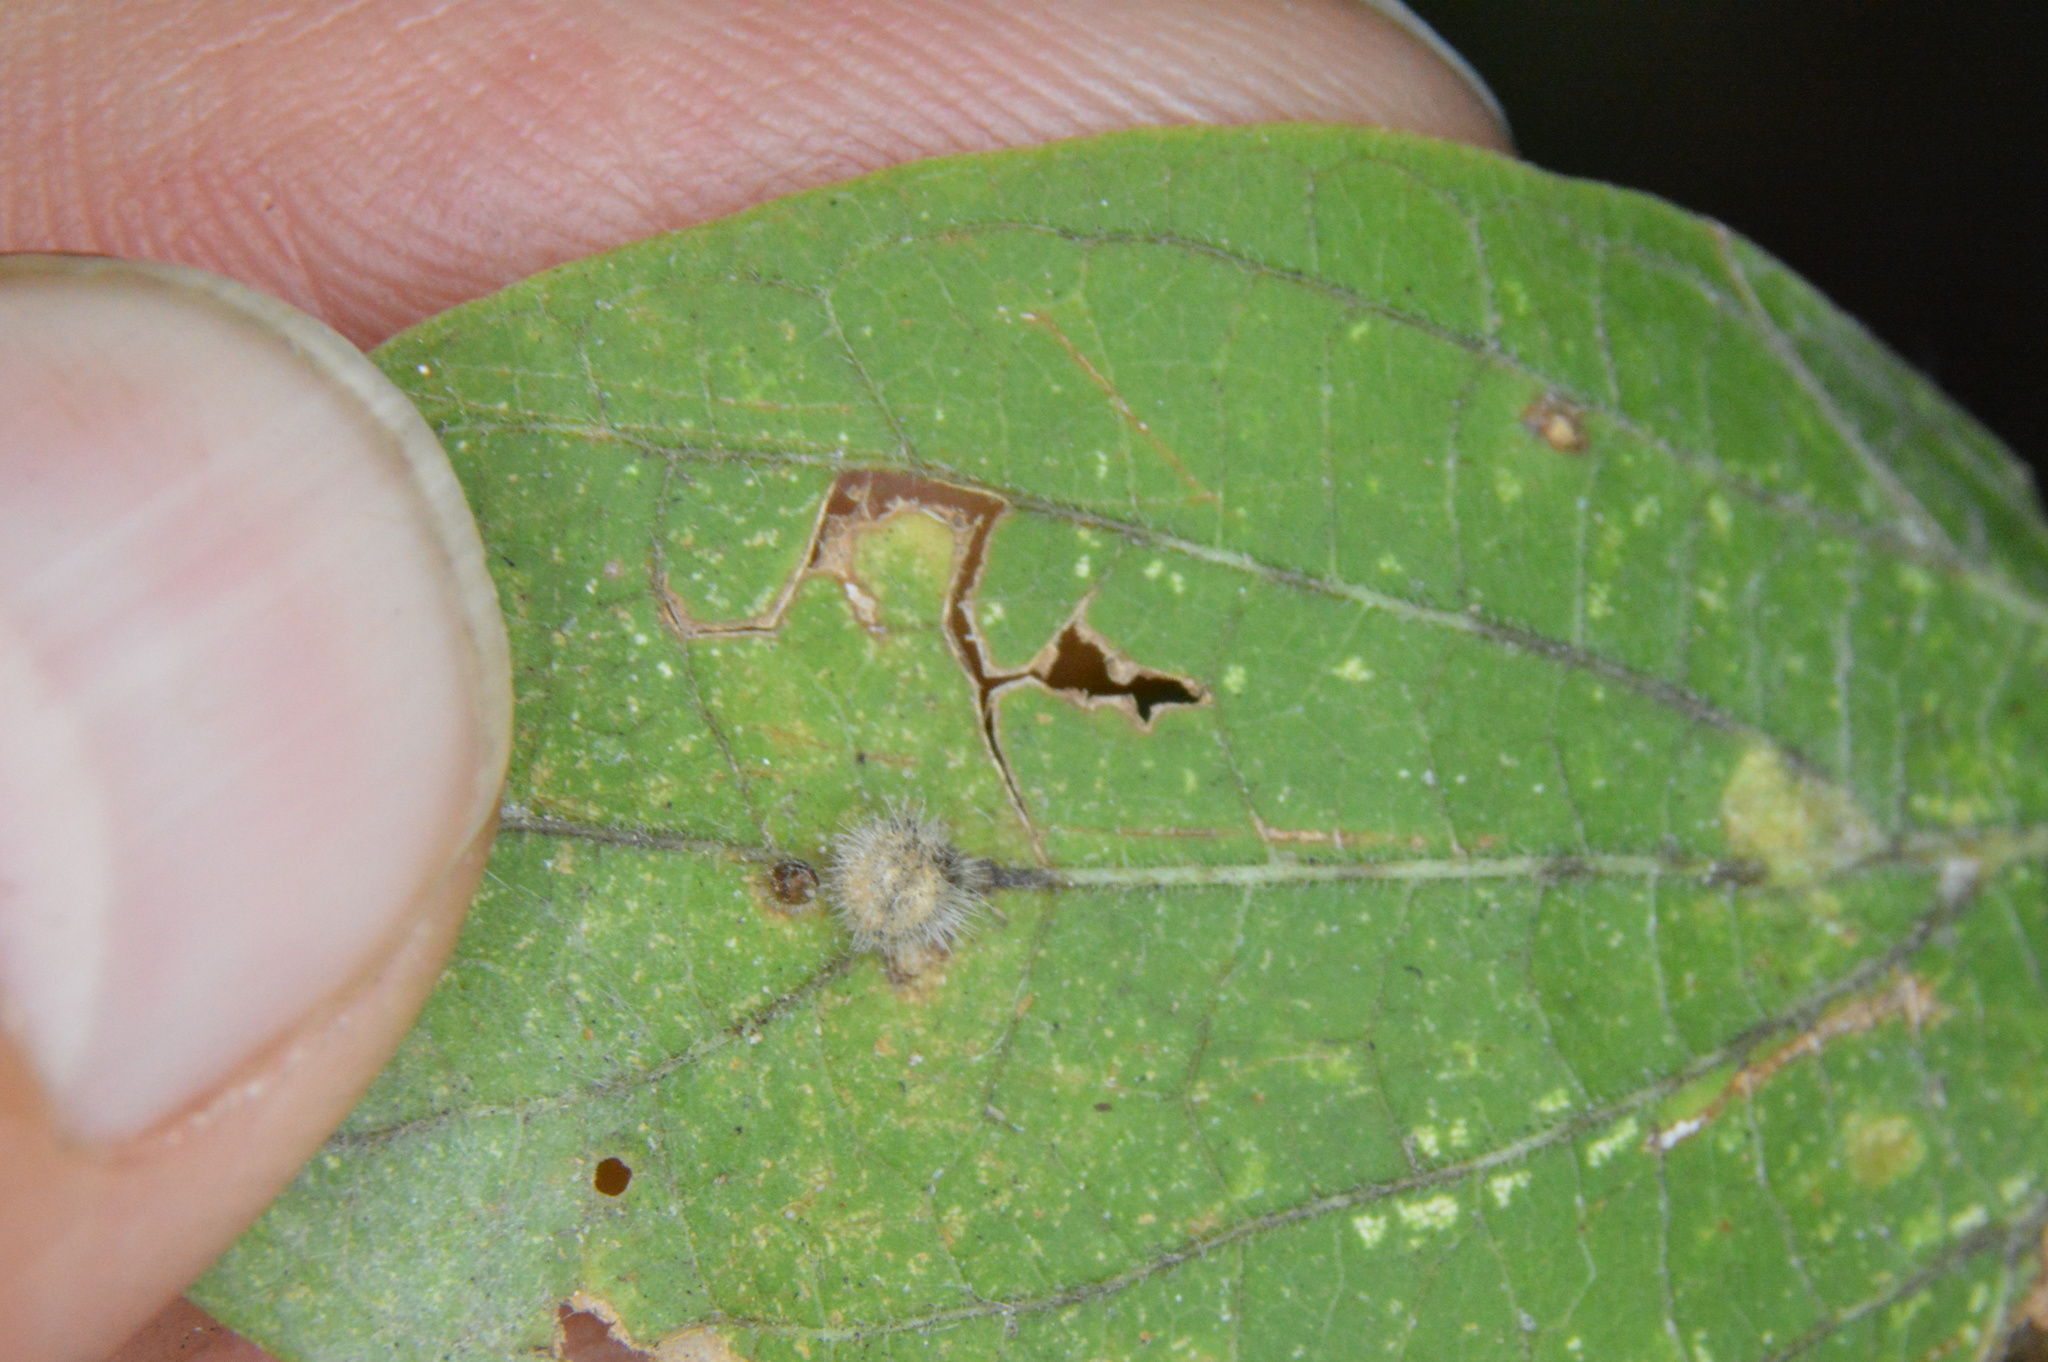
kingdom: Animalia
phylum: Arthropoda
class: Insecta
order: Diptera
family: Cecidomyiidae
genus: Celticecis
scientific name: Celticecis pubescens
